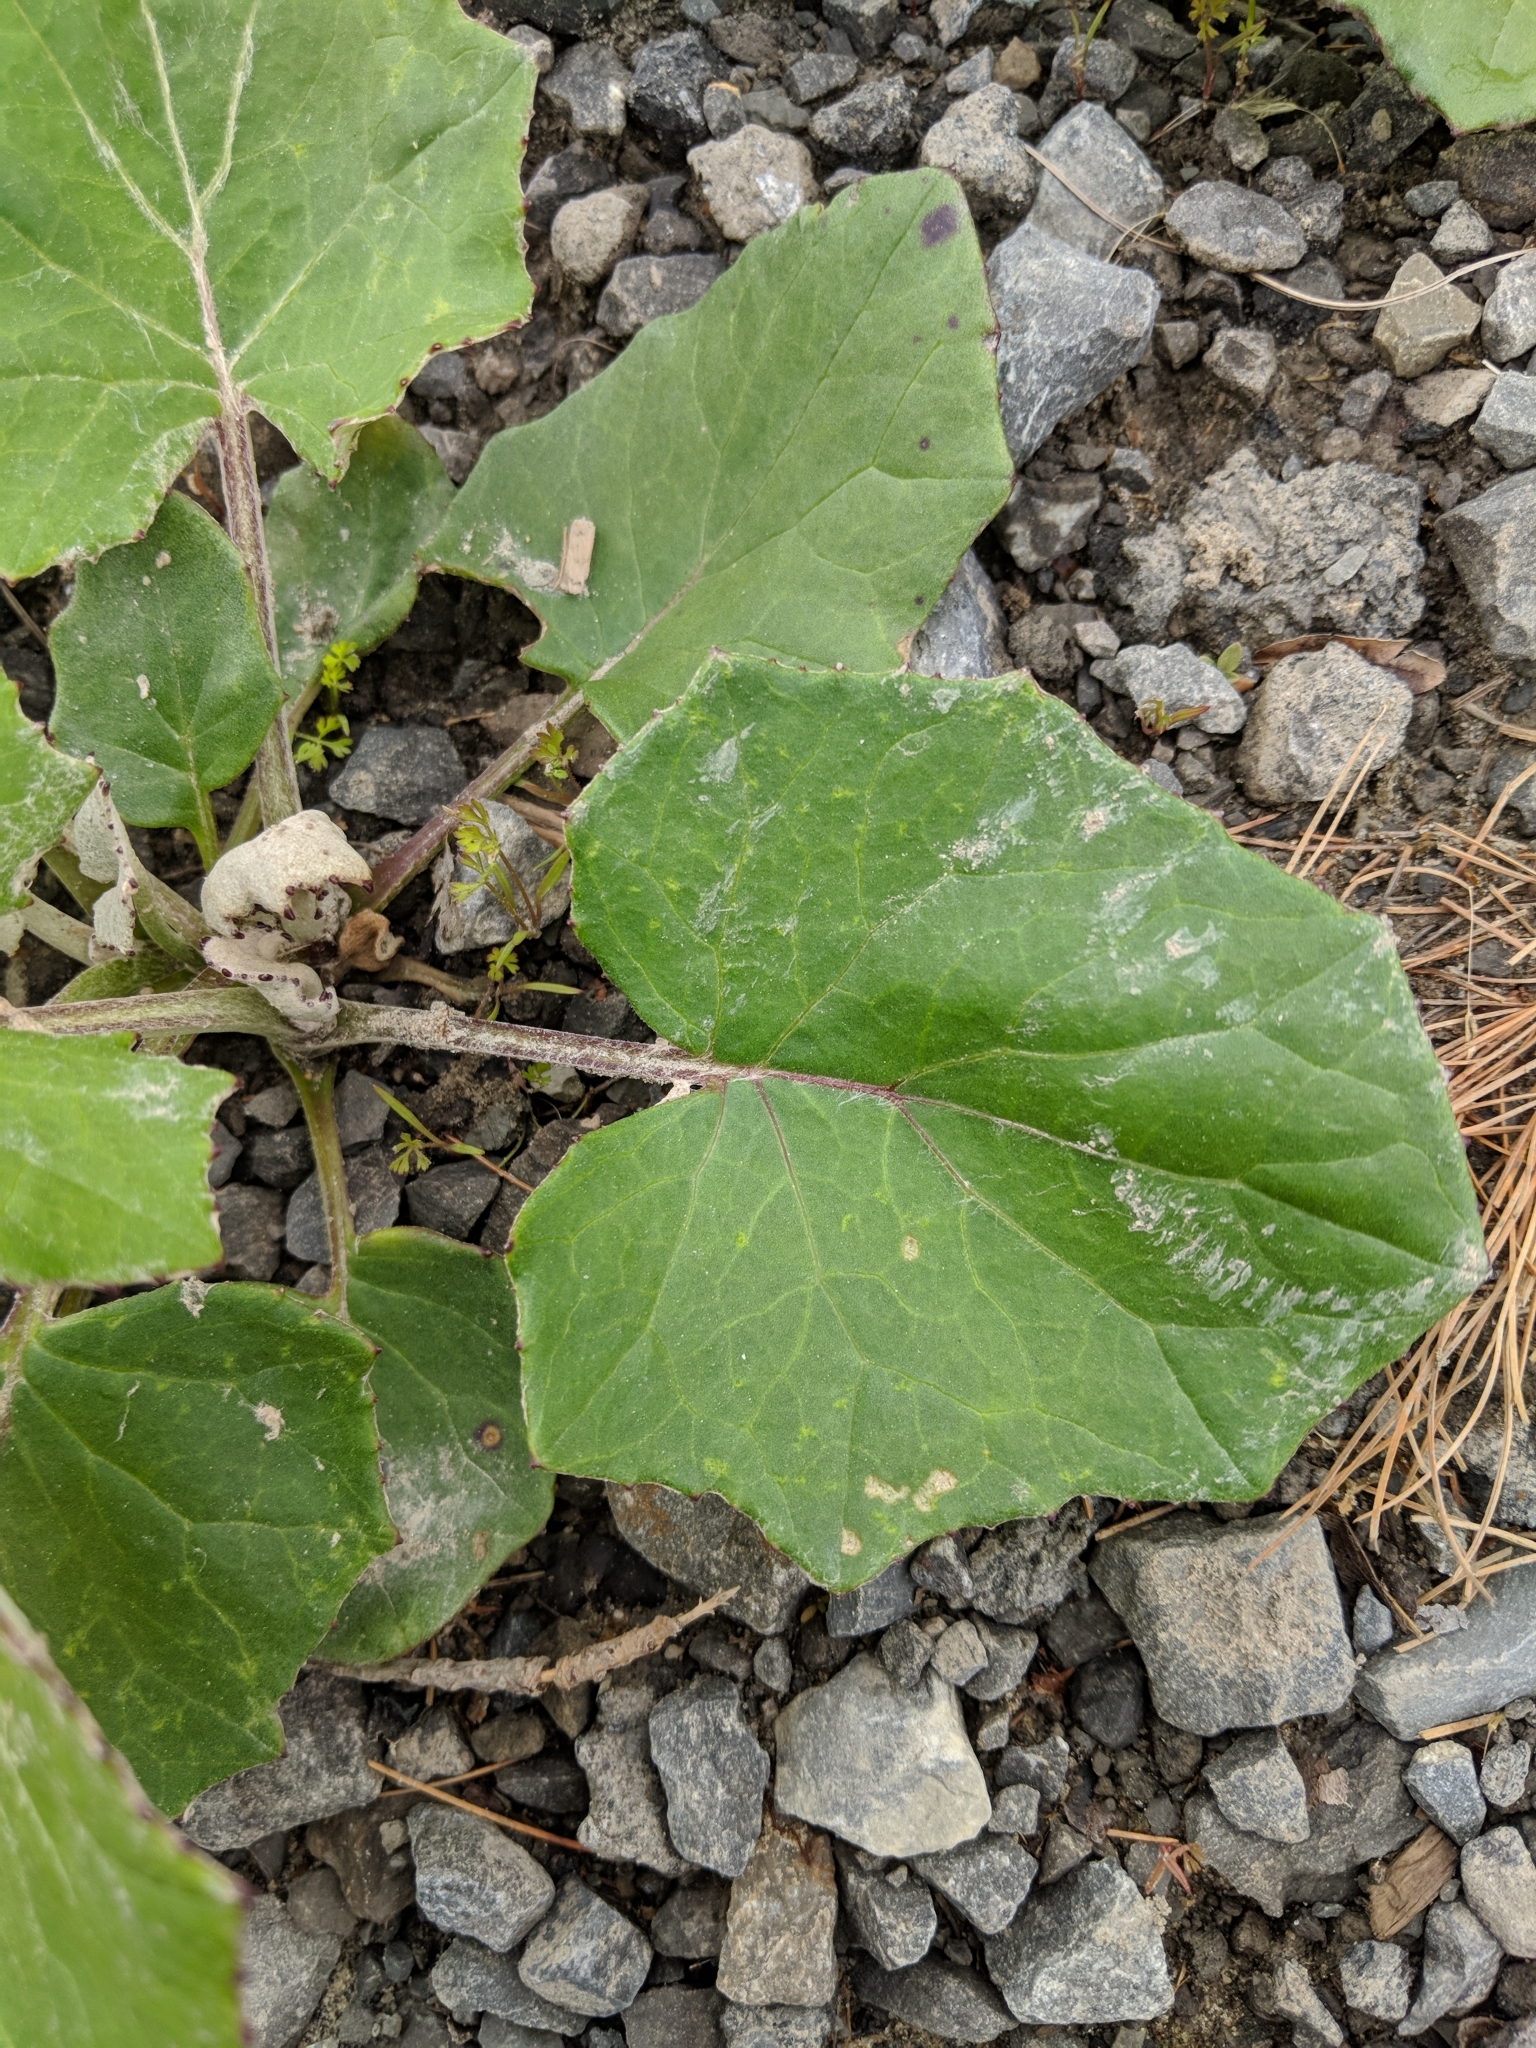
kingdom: Plantae
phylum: Tracheophyta
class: Magnoliopsida
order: Asterales
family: Asteraceae
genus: Tussilago
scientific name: Tussilago farfara
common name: Coltsfoot
